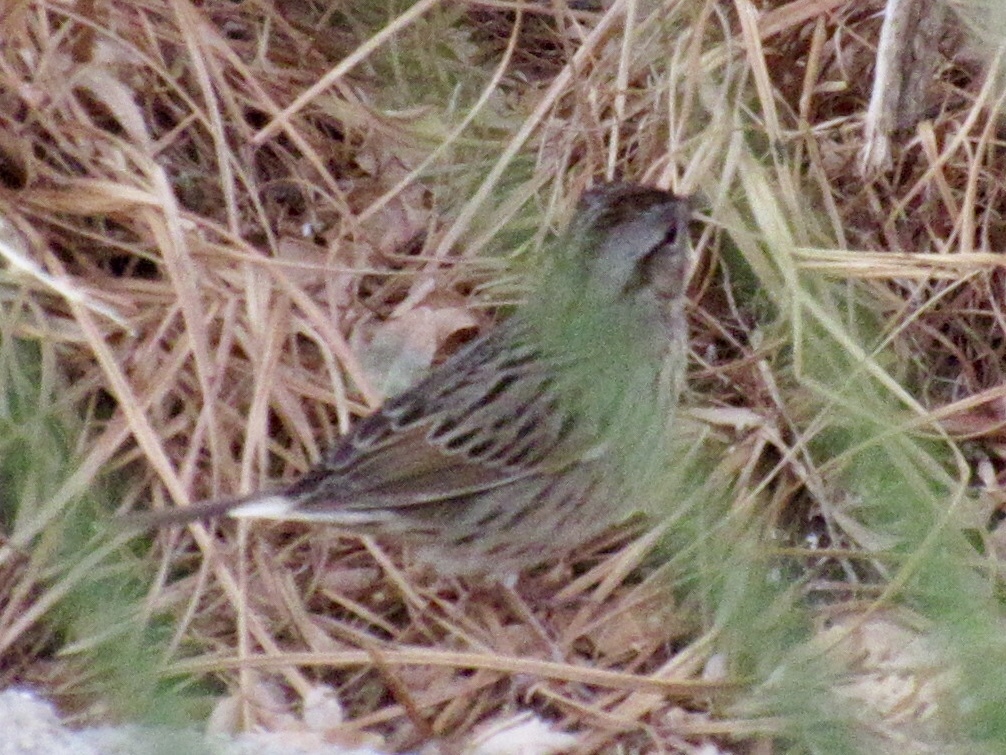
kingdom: Animalia
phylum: Chordata
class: Aves
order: Passeriformes
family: Passerellidae
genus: Melospiza
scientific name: Melospiza lincolnii
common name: Lincoln's sparrow
